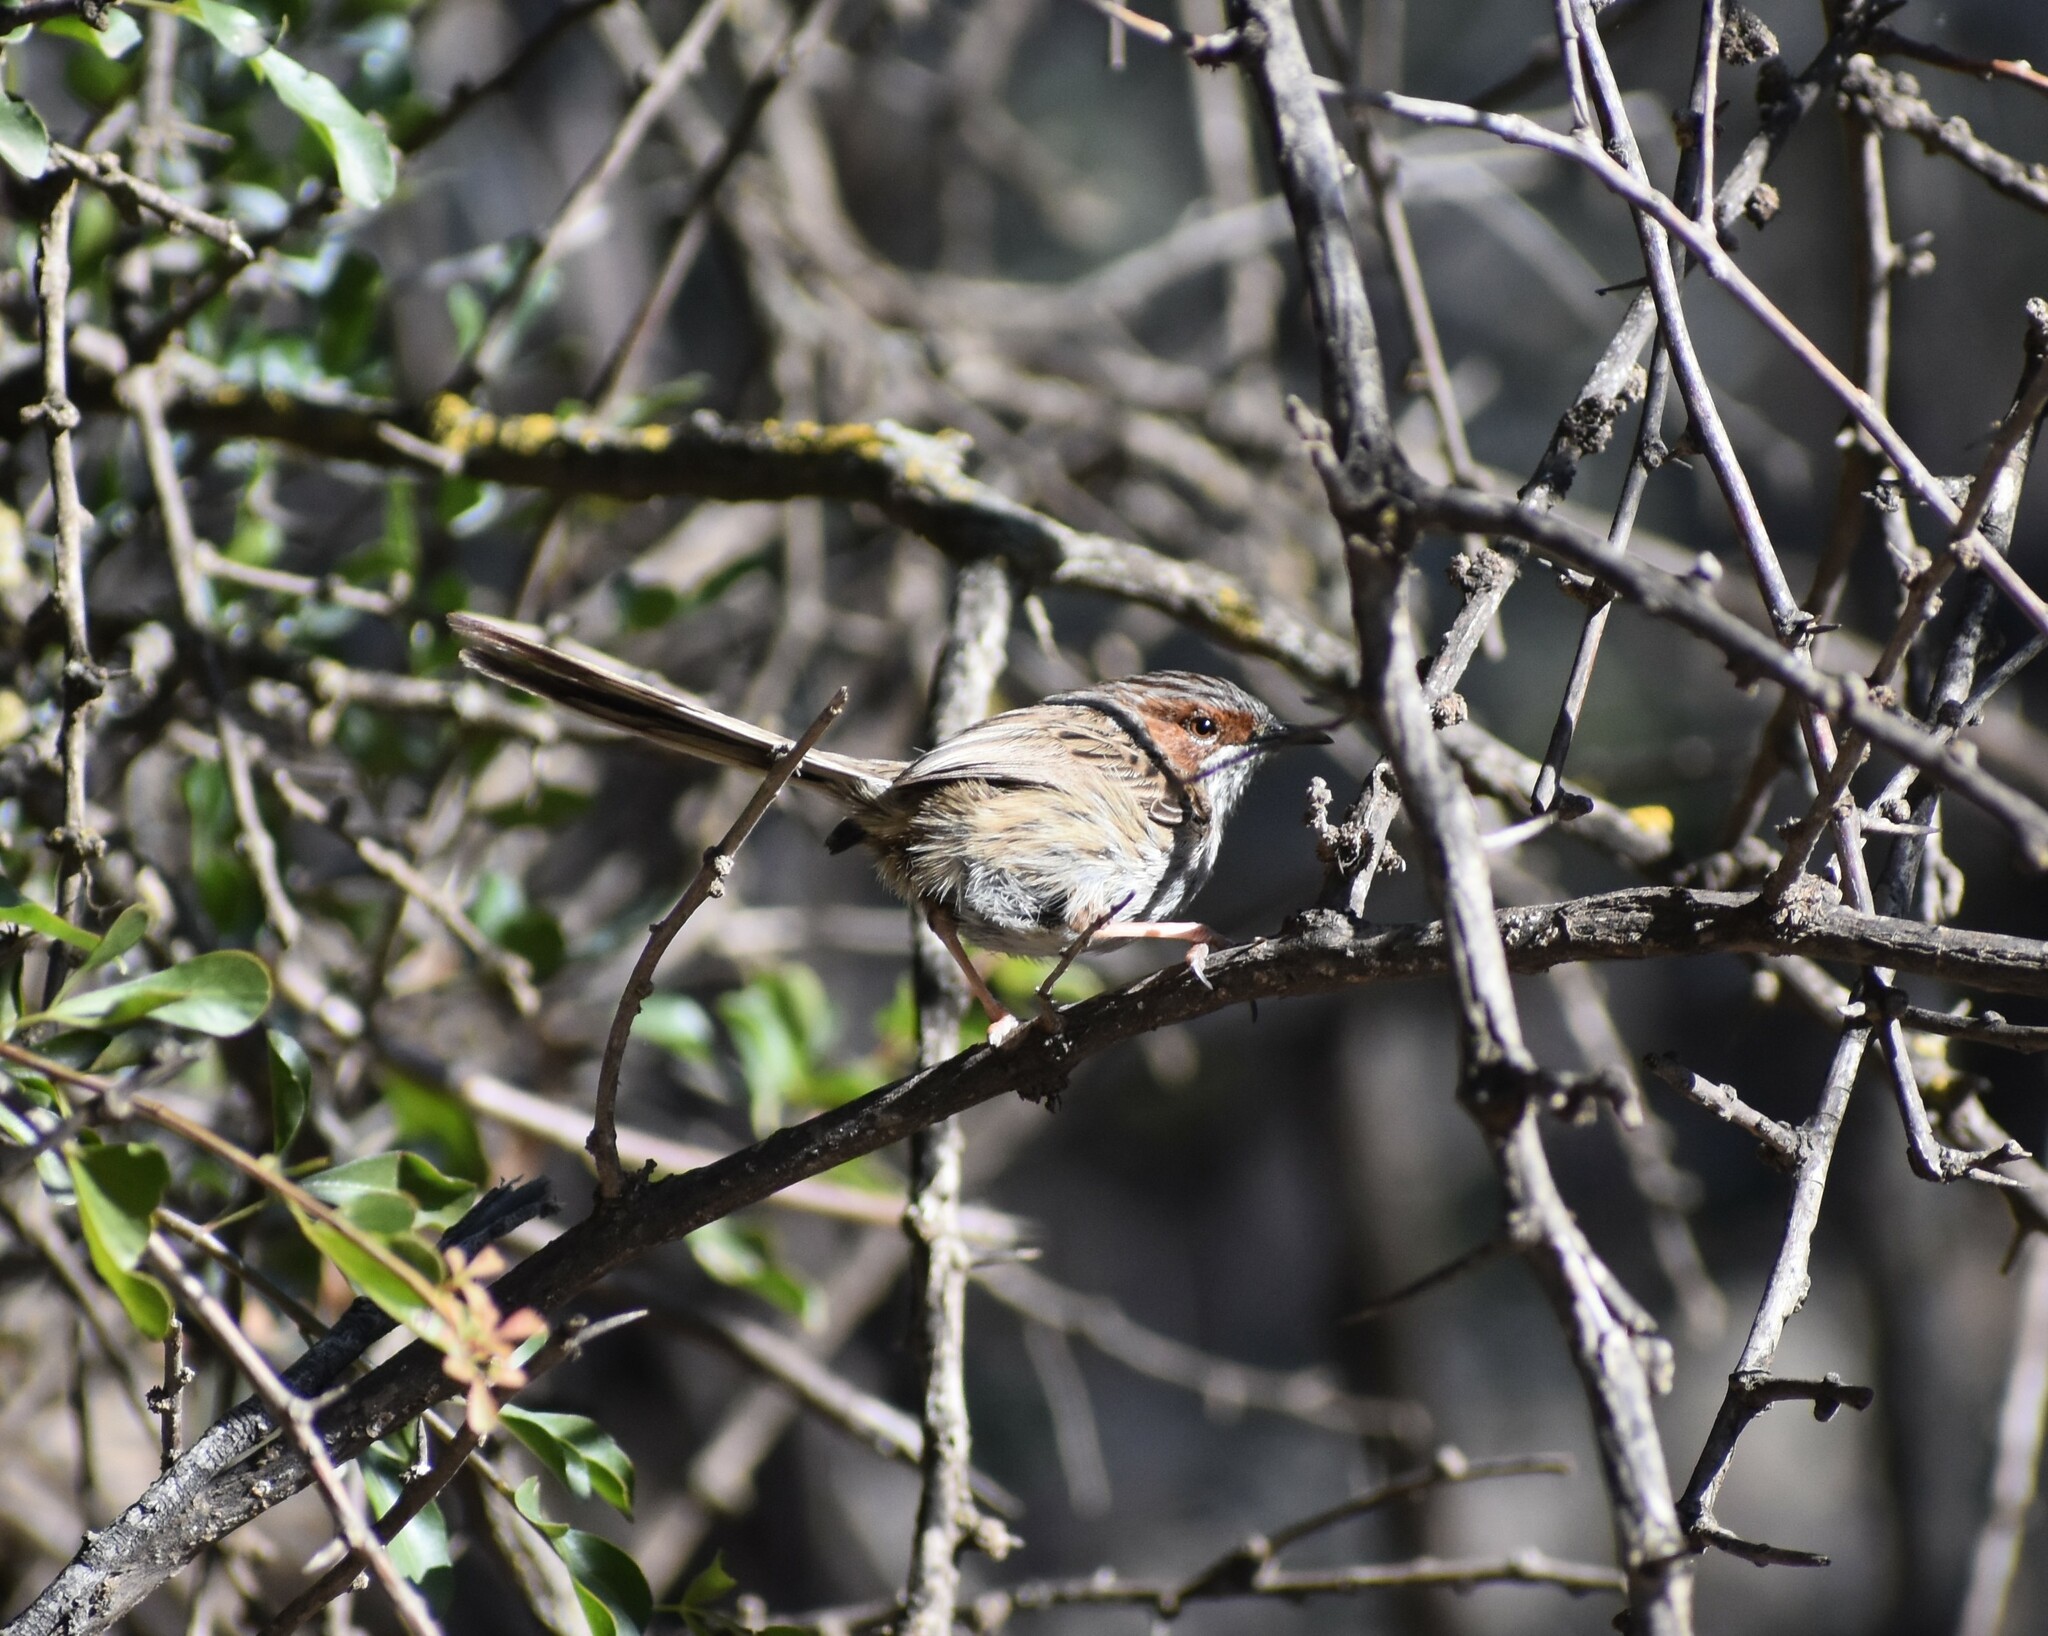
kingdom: Animalia
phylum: Chordata
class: Aves
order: Passeriformes
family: Cisticolidae
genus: Malcorus
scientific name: Malcorus pectoralis
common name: Rufous-eared warbler
